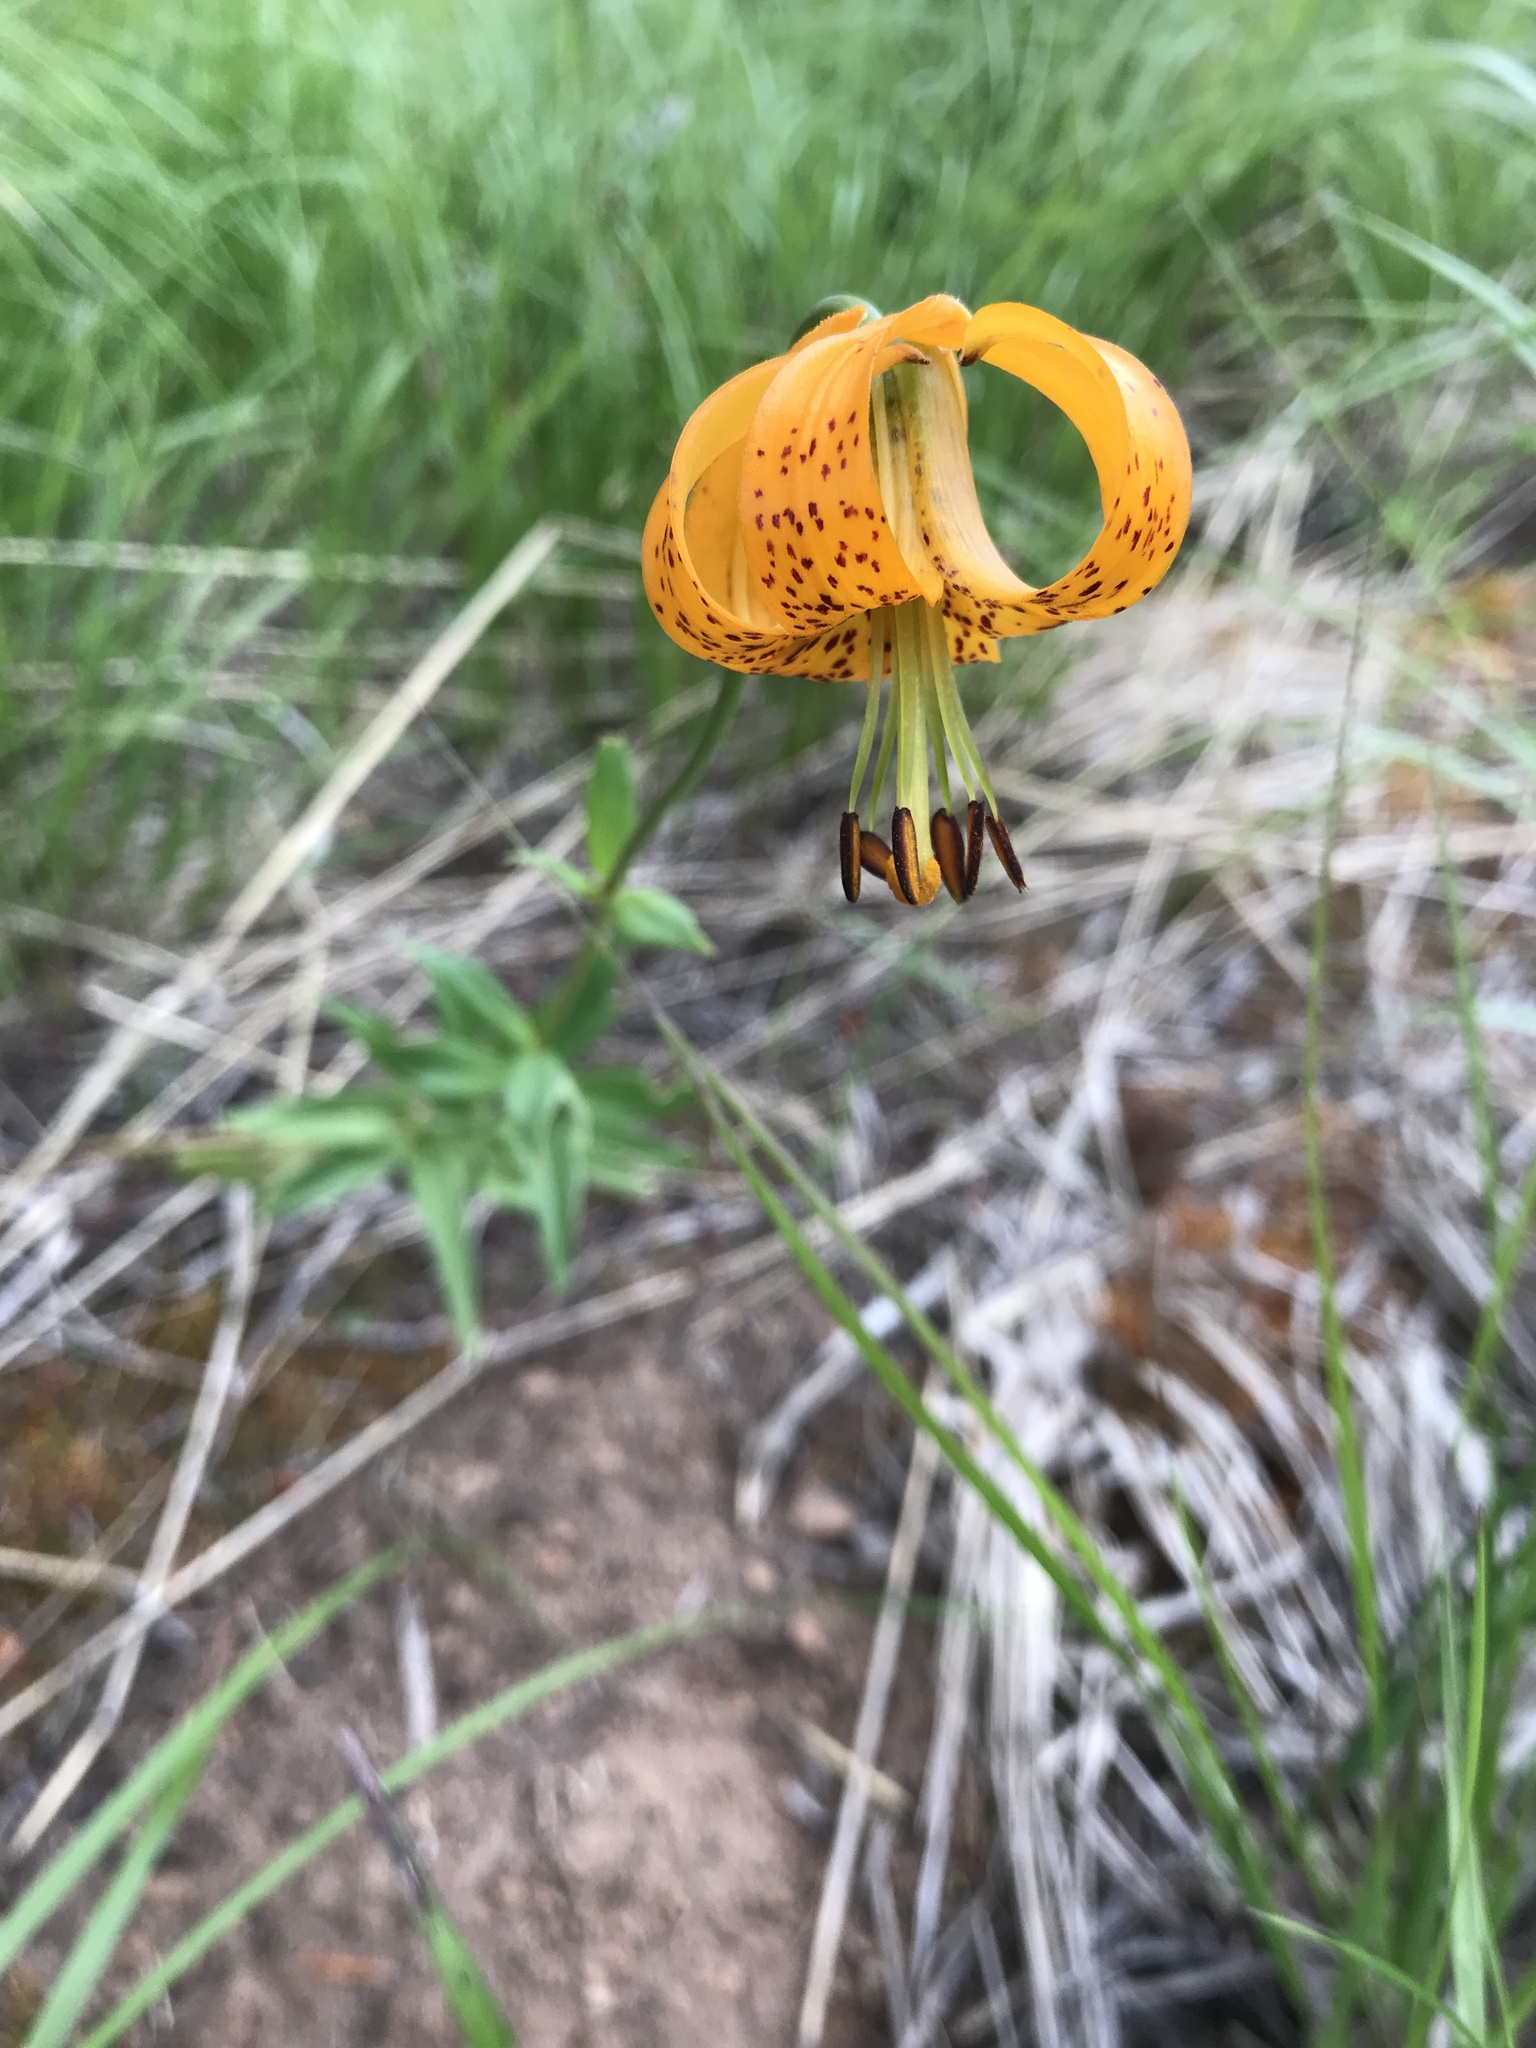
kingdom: Plantae
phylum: Tracheophyta
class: Liliopsida
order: Liliales
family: Liliaceae
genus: Lilium
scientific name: Lilium columbianum
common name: Columbia lily
